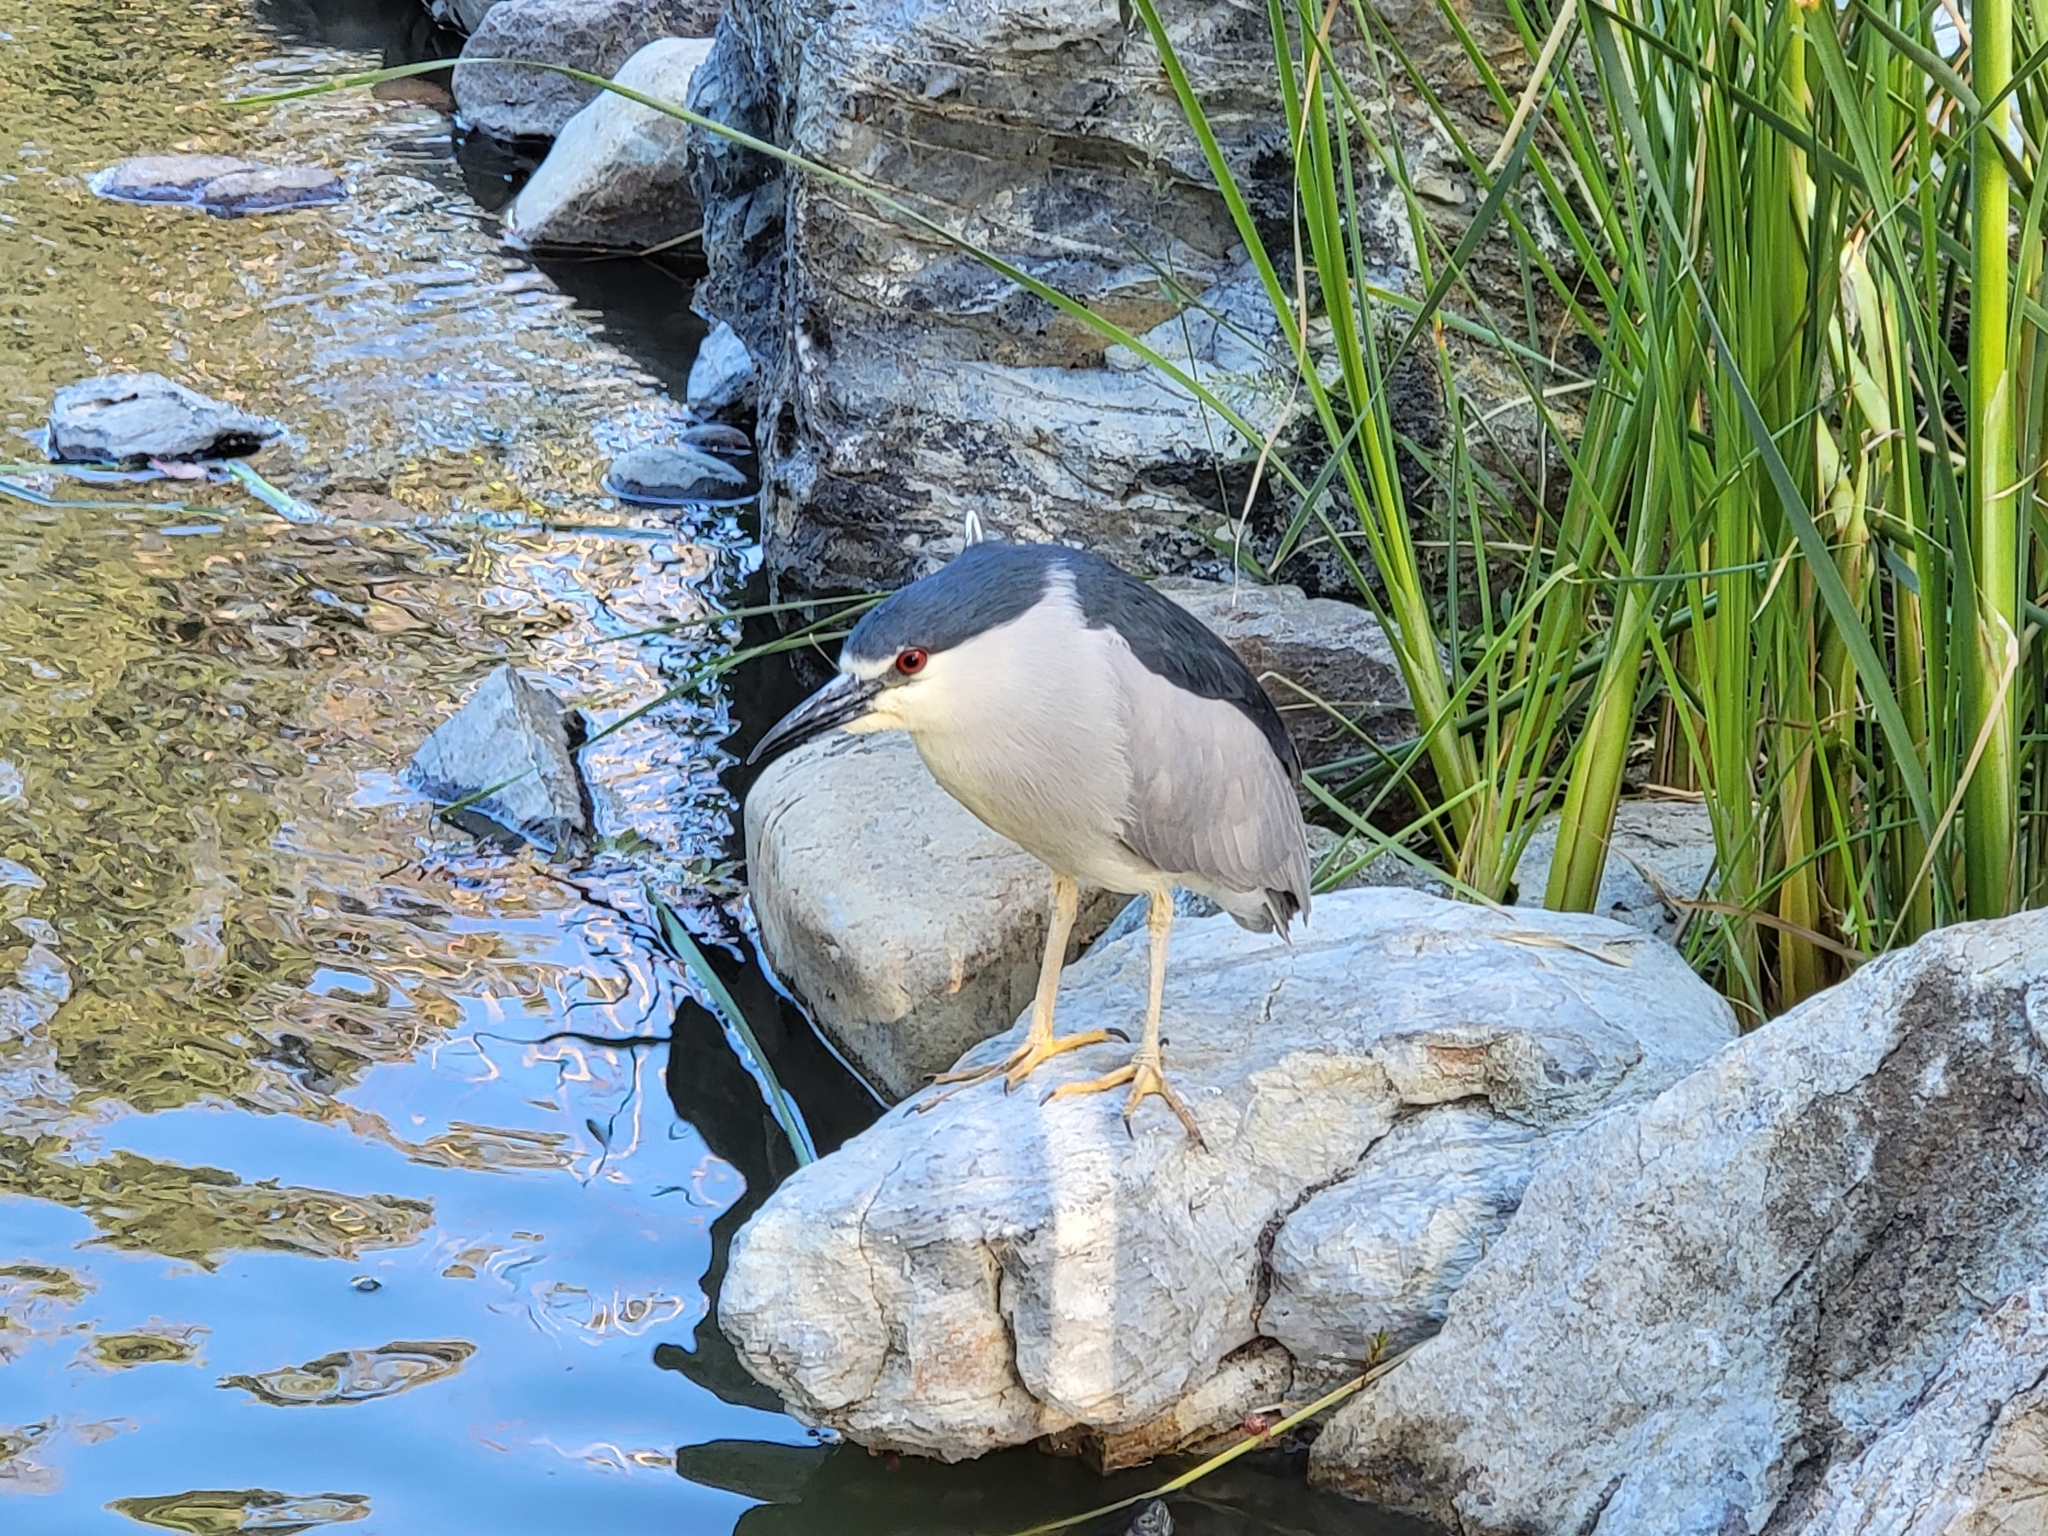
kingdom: Animalia
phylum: Chordata
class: Aves
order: Pelecaniformes
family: Ardeidae
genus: Nycticorax
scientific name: Nycticorax nycticorax
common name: Black-crowned night heron
